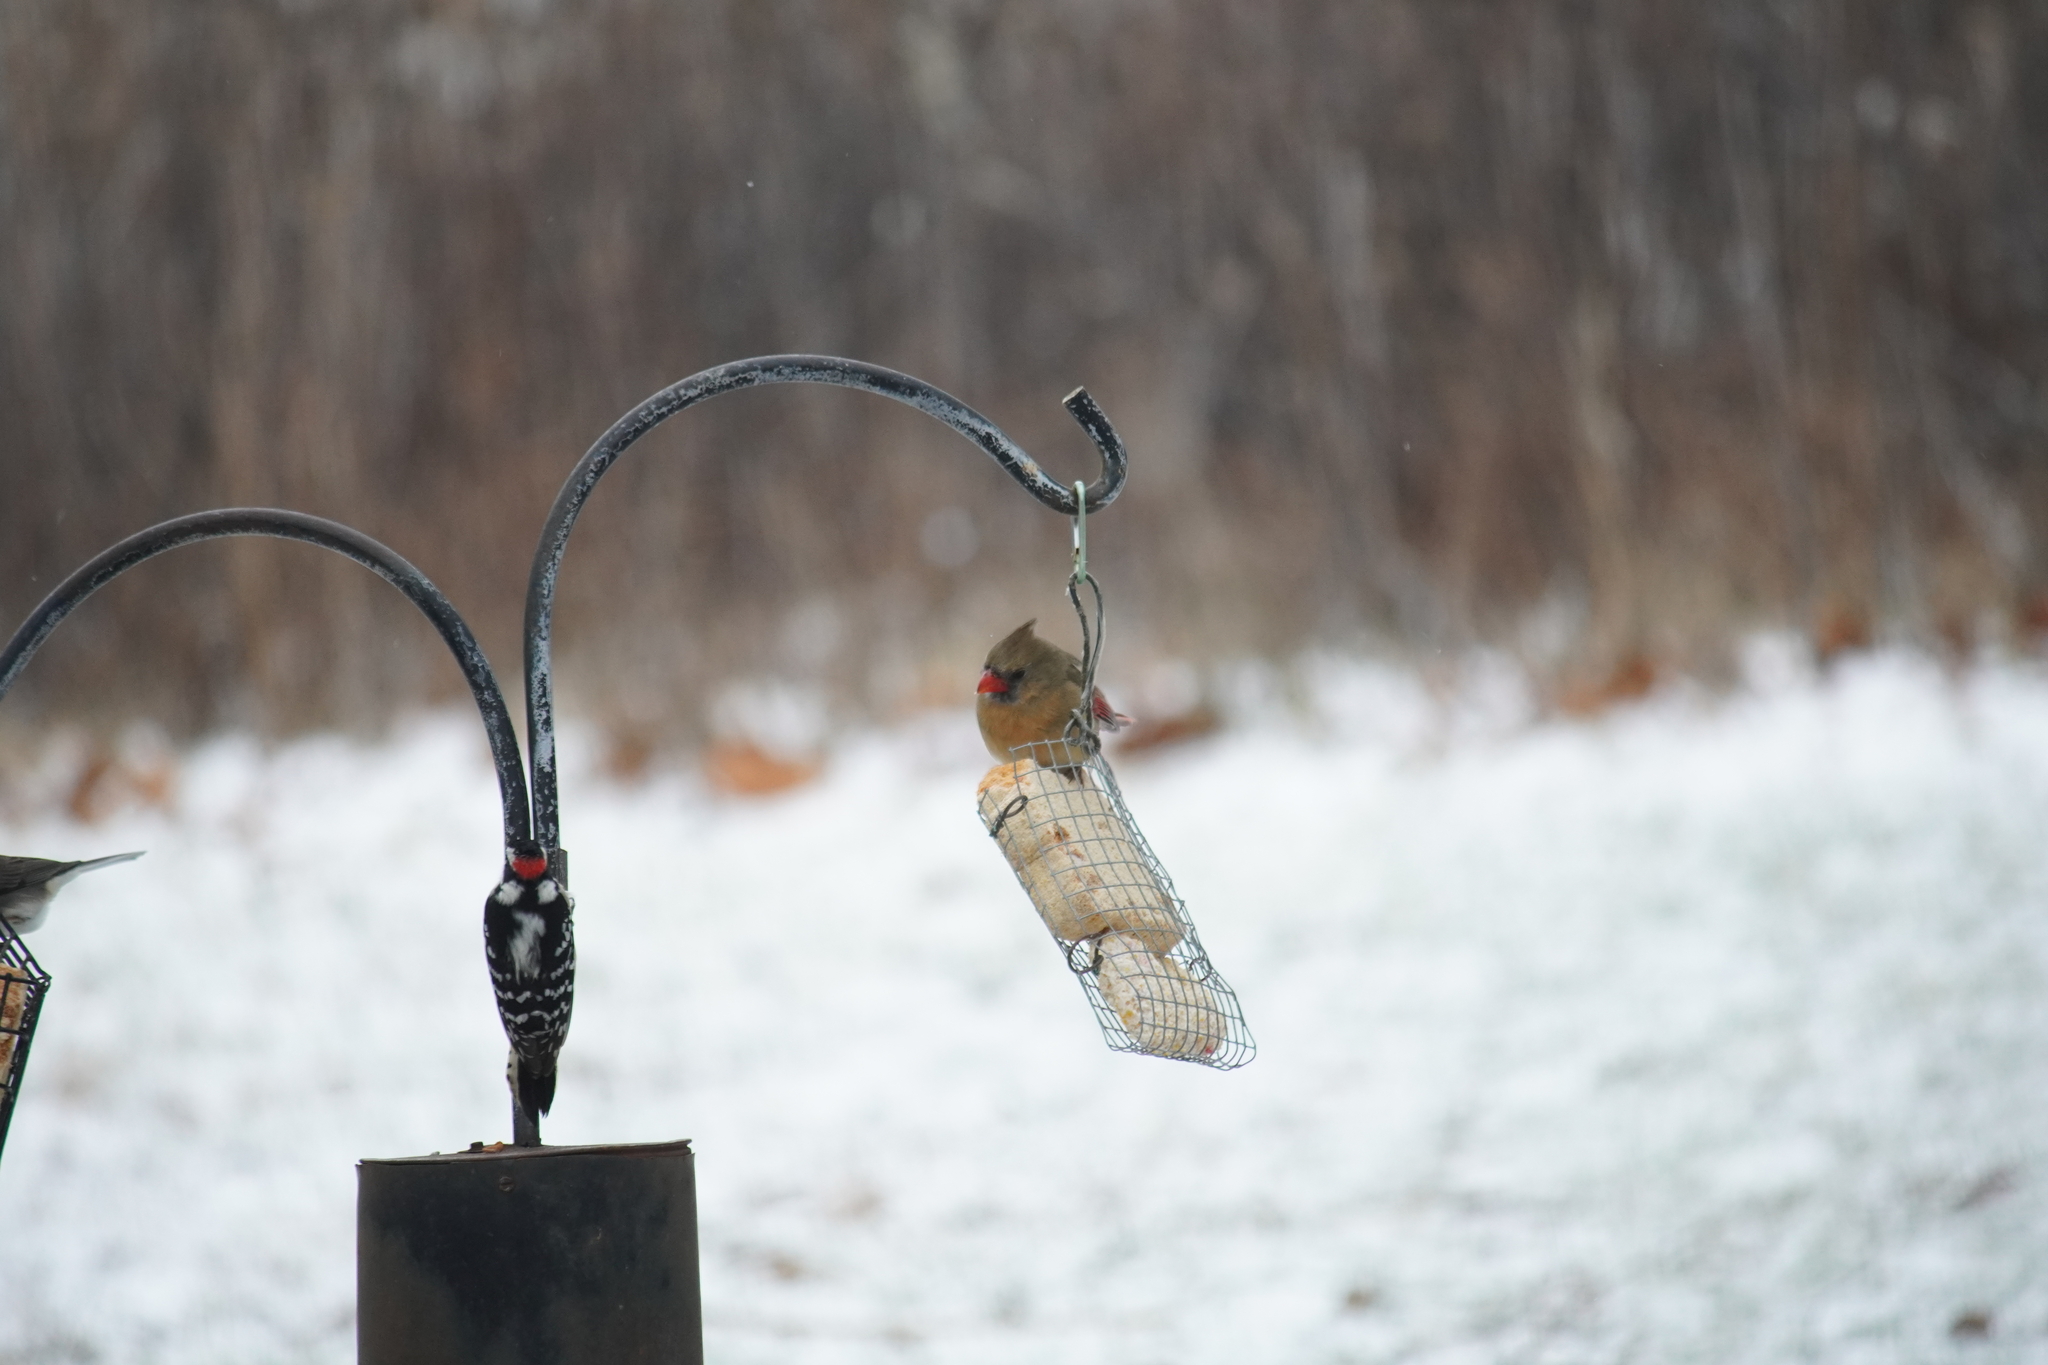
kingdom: Animalia
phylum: Chordata
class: Aves
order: Passeriformes
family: Cardinalidae
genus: Cardinalis
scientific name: Cardinalis cardinalis
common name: Northern cardinal
